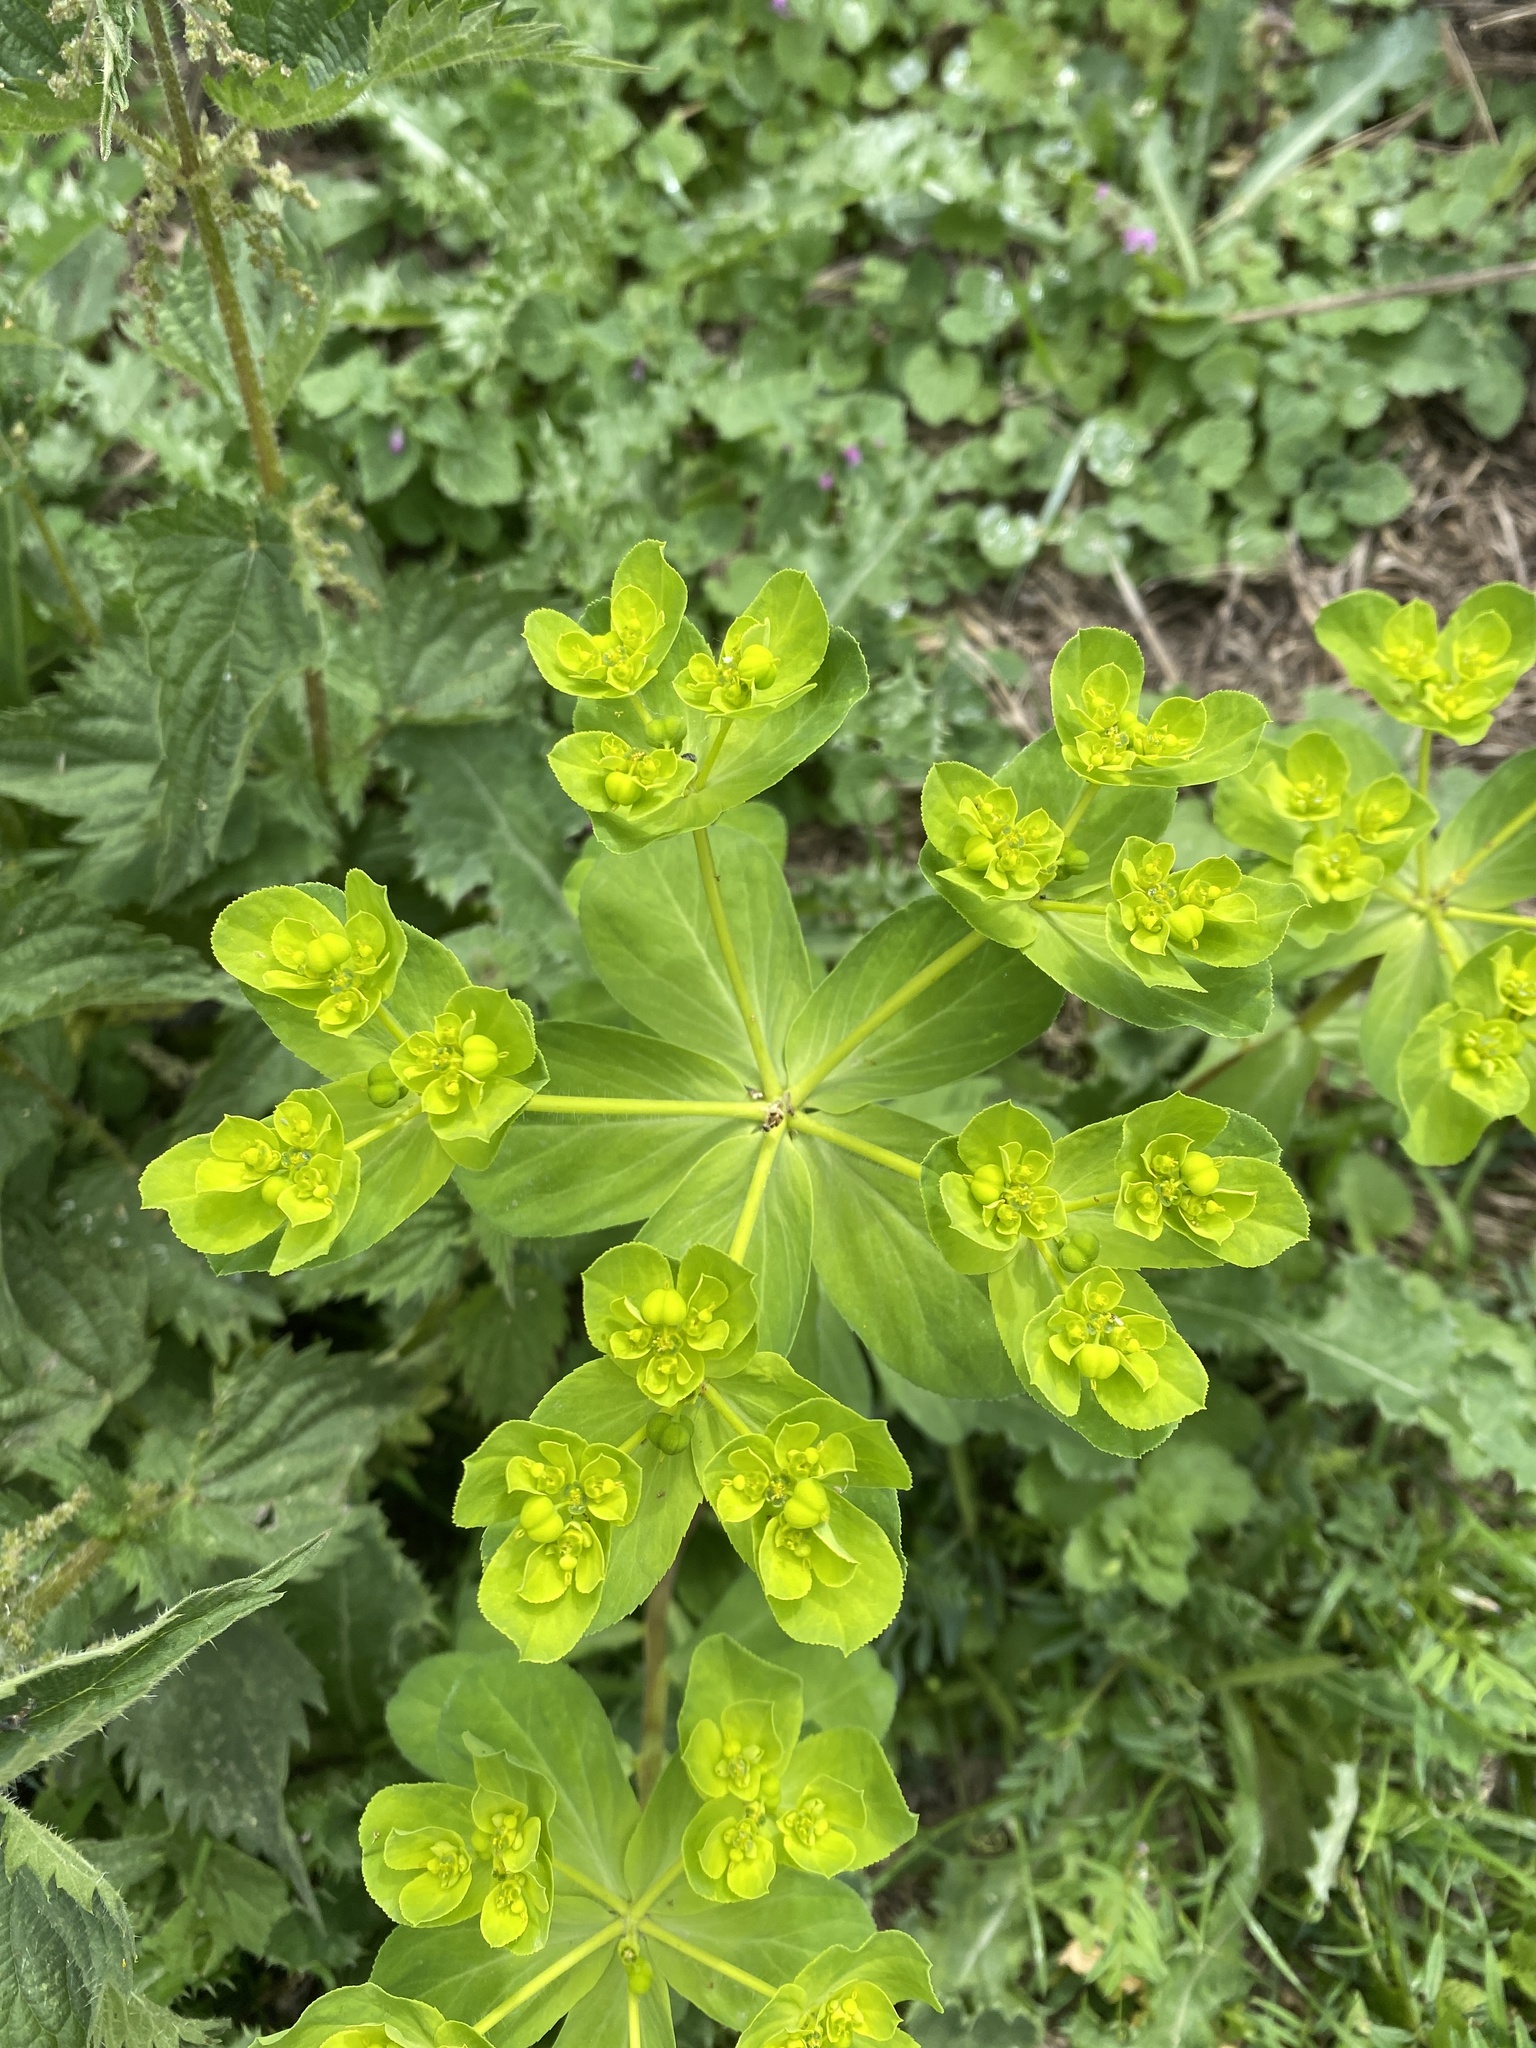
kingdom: Plantae
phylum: Tracheophyta
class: Magnoliopsida
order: Malpighiales
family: Euphorbiaceae
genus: Euphorbia
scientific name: Euphorbia helioscopia
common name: Sun spurge
